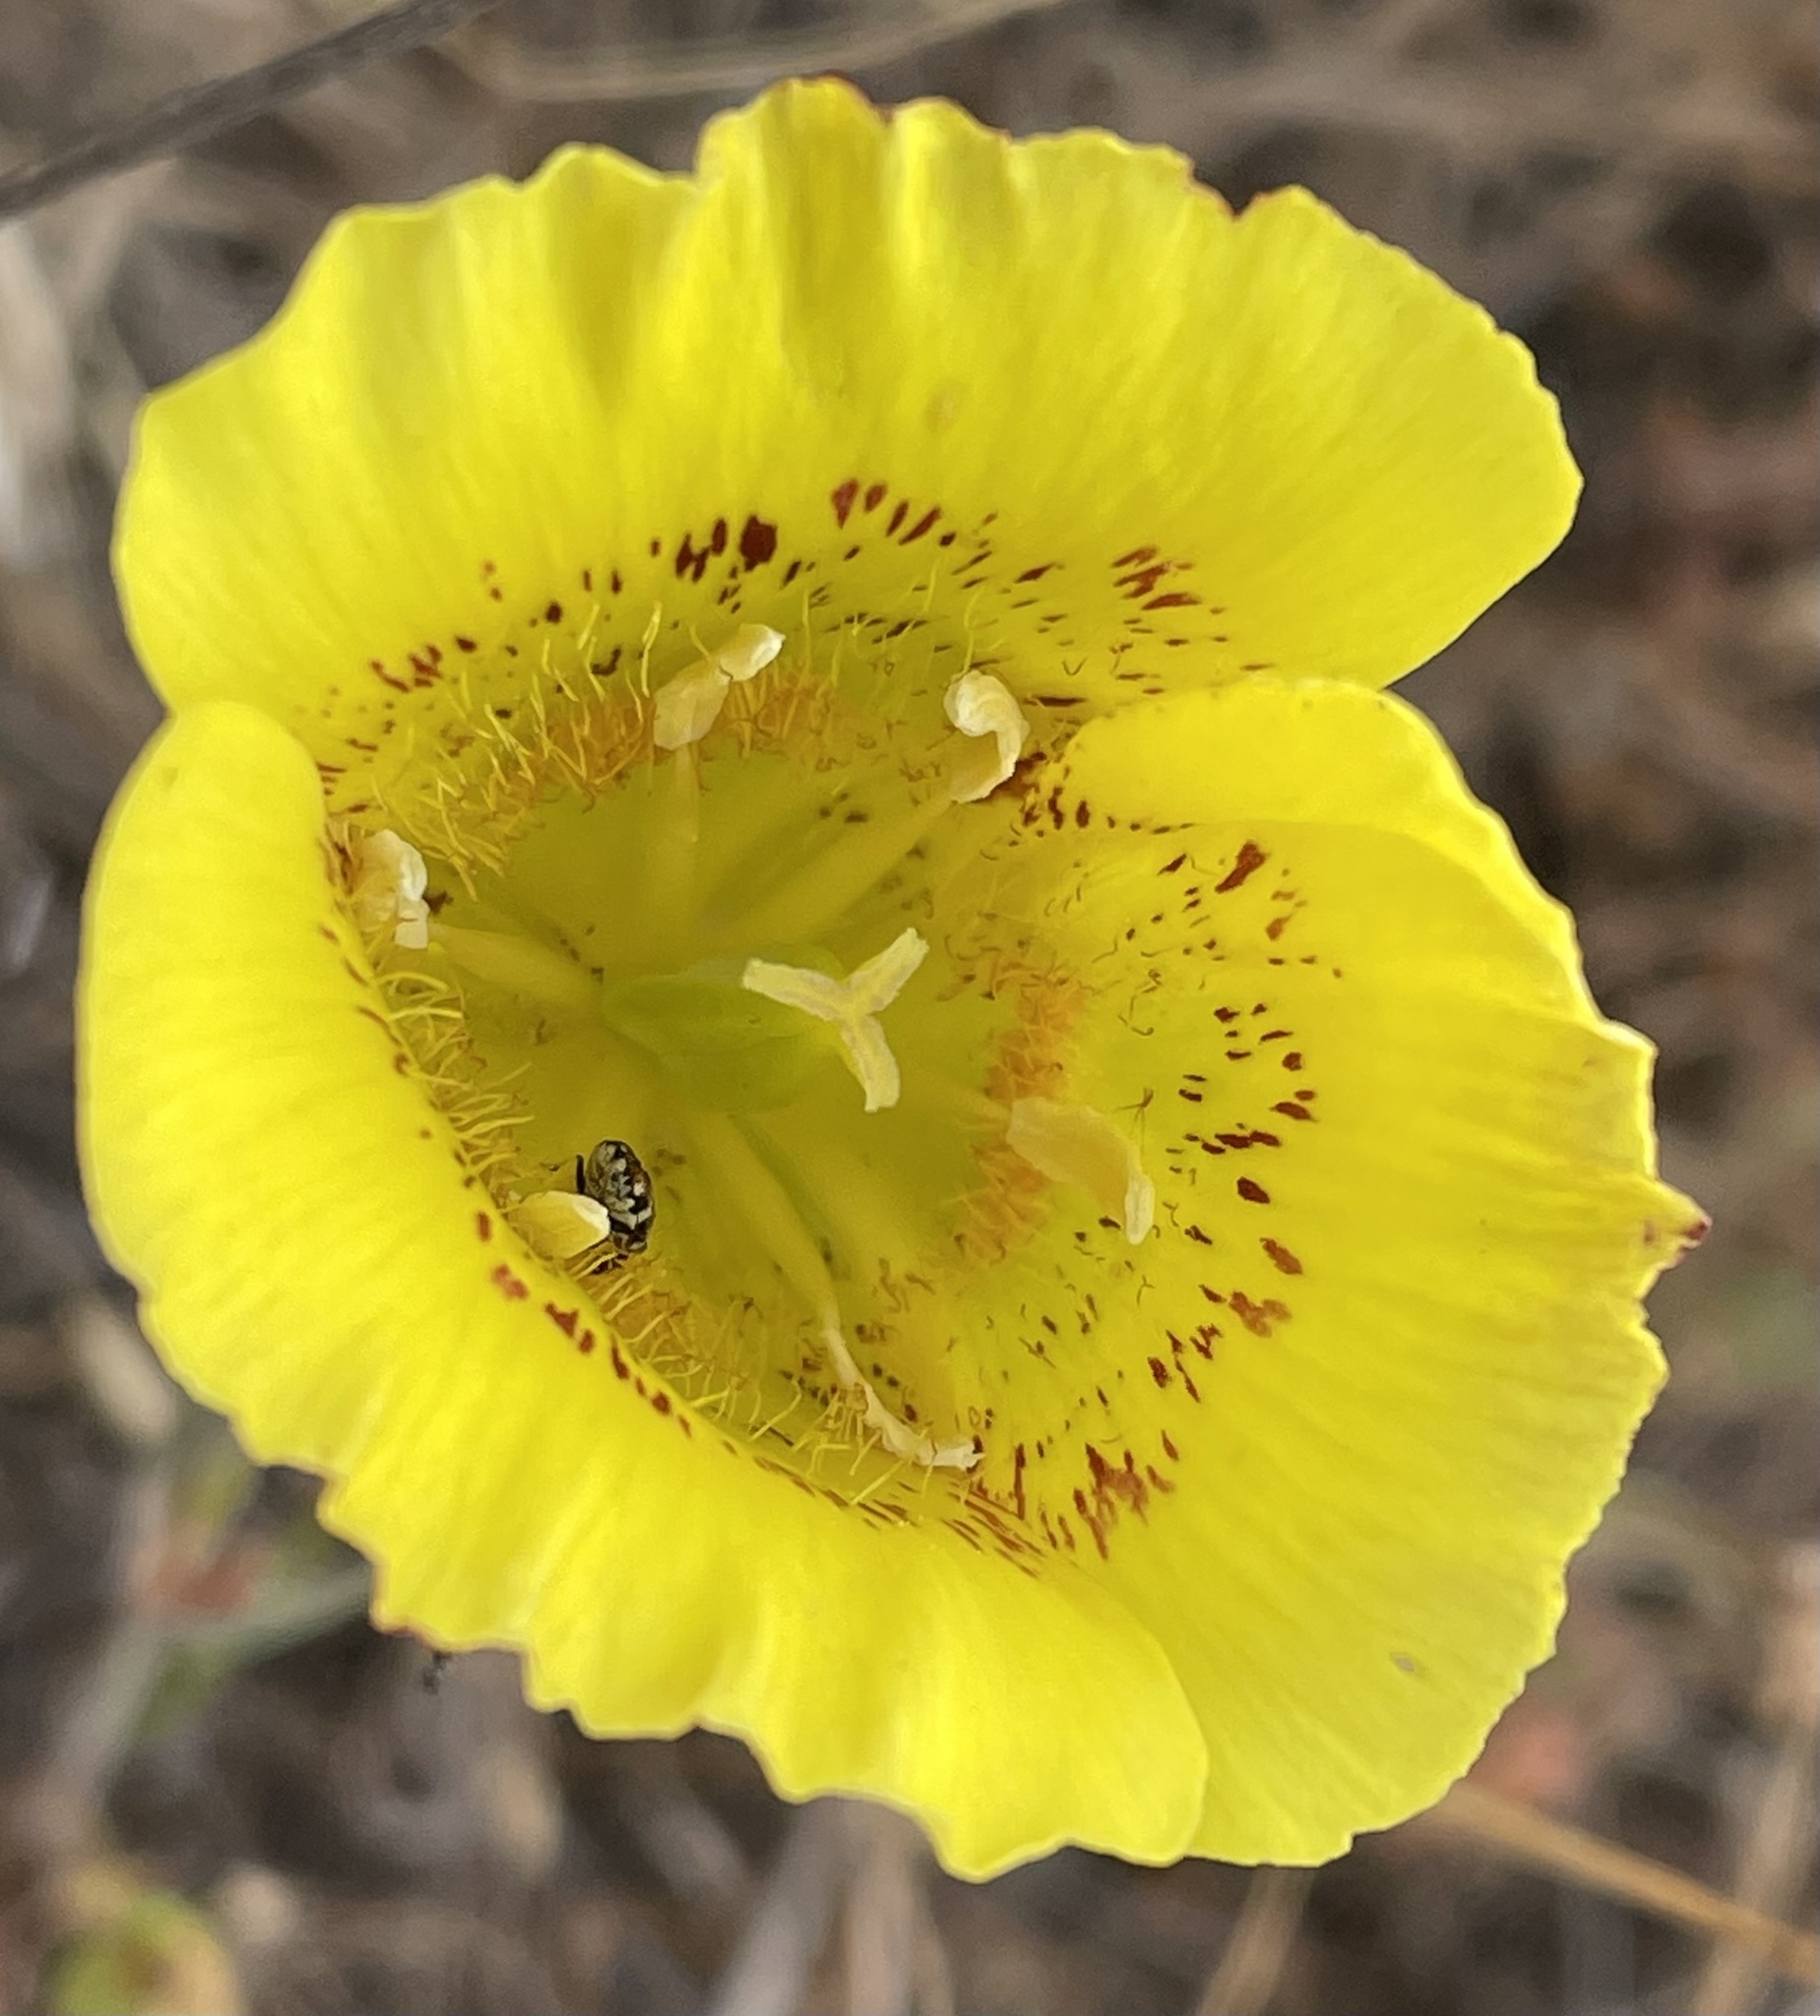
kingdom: Plantae
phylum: Tracheophyta
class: Liliopsida
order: Liliales
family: Liliaceae
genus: Calochortus
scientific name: Calochortus luteus
